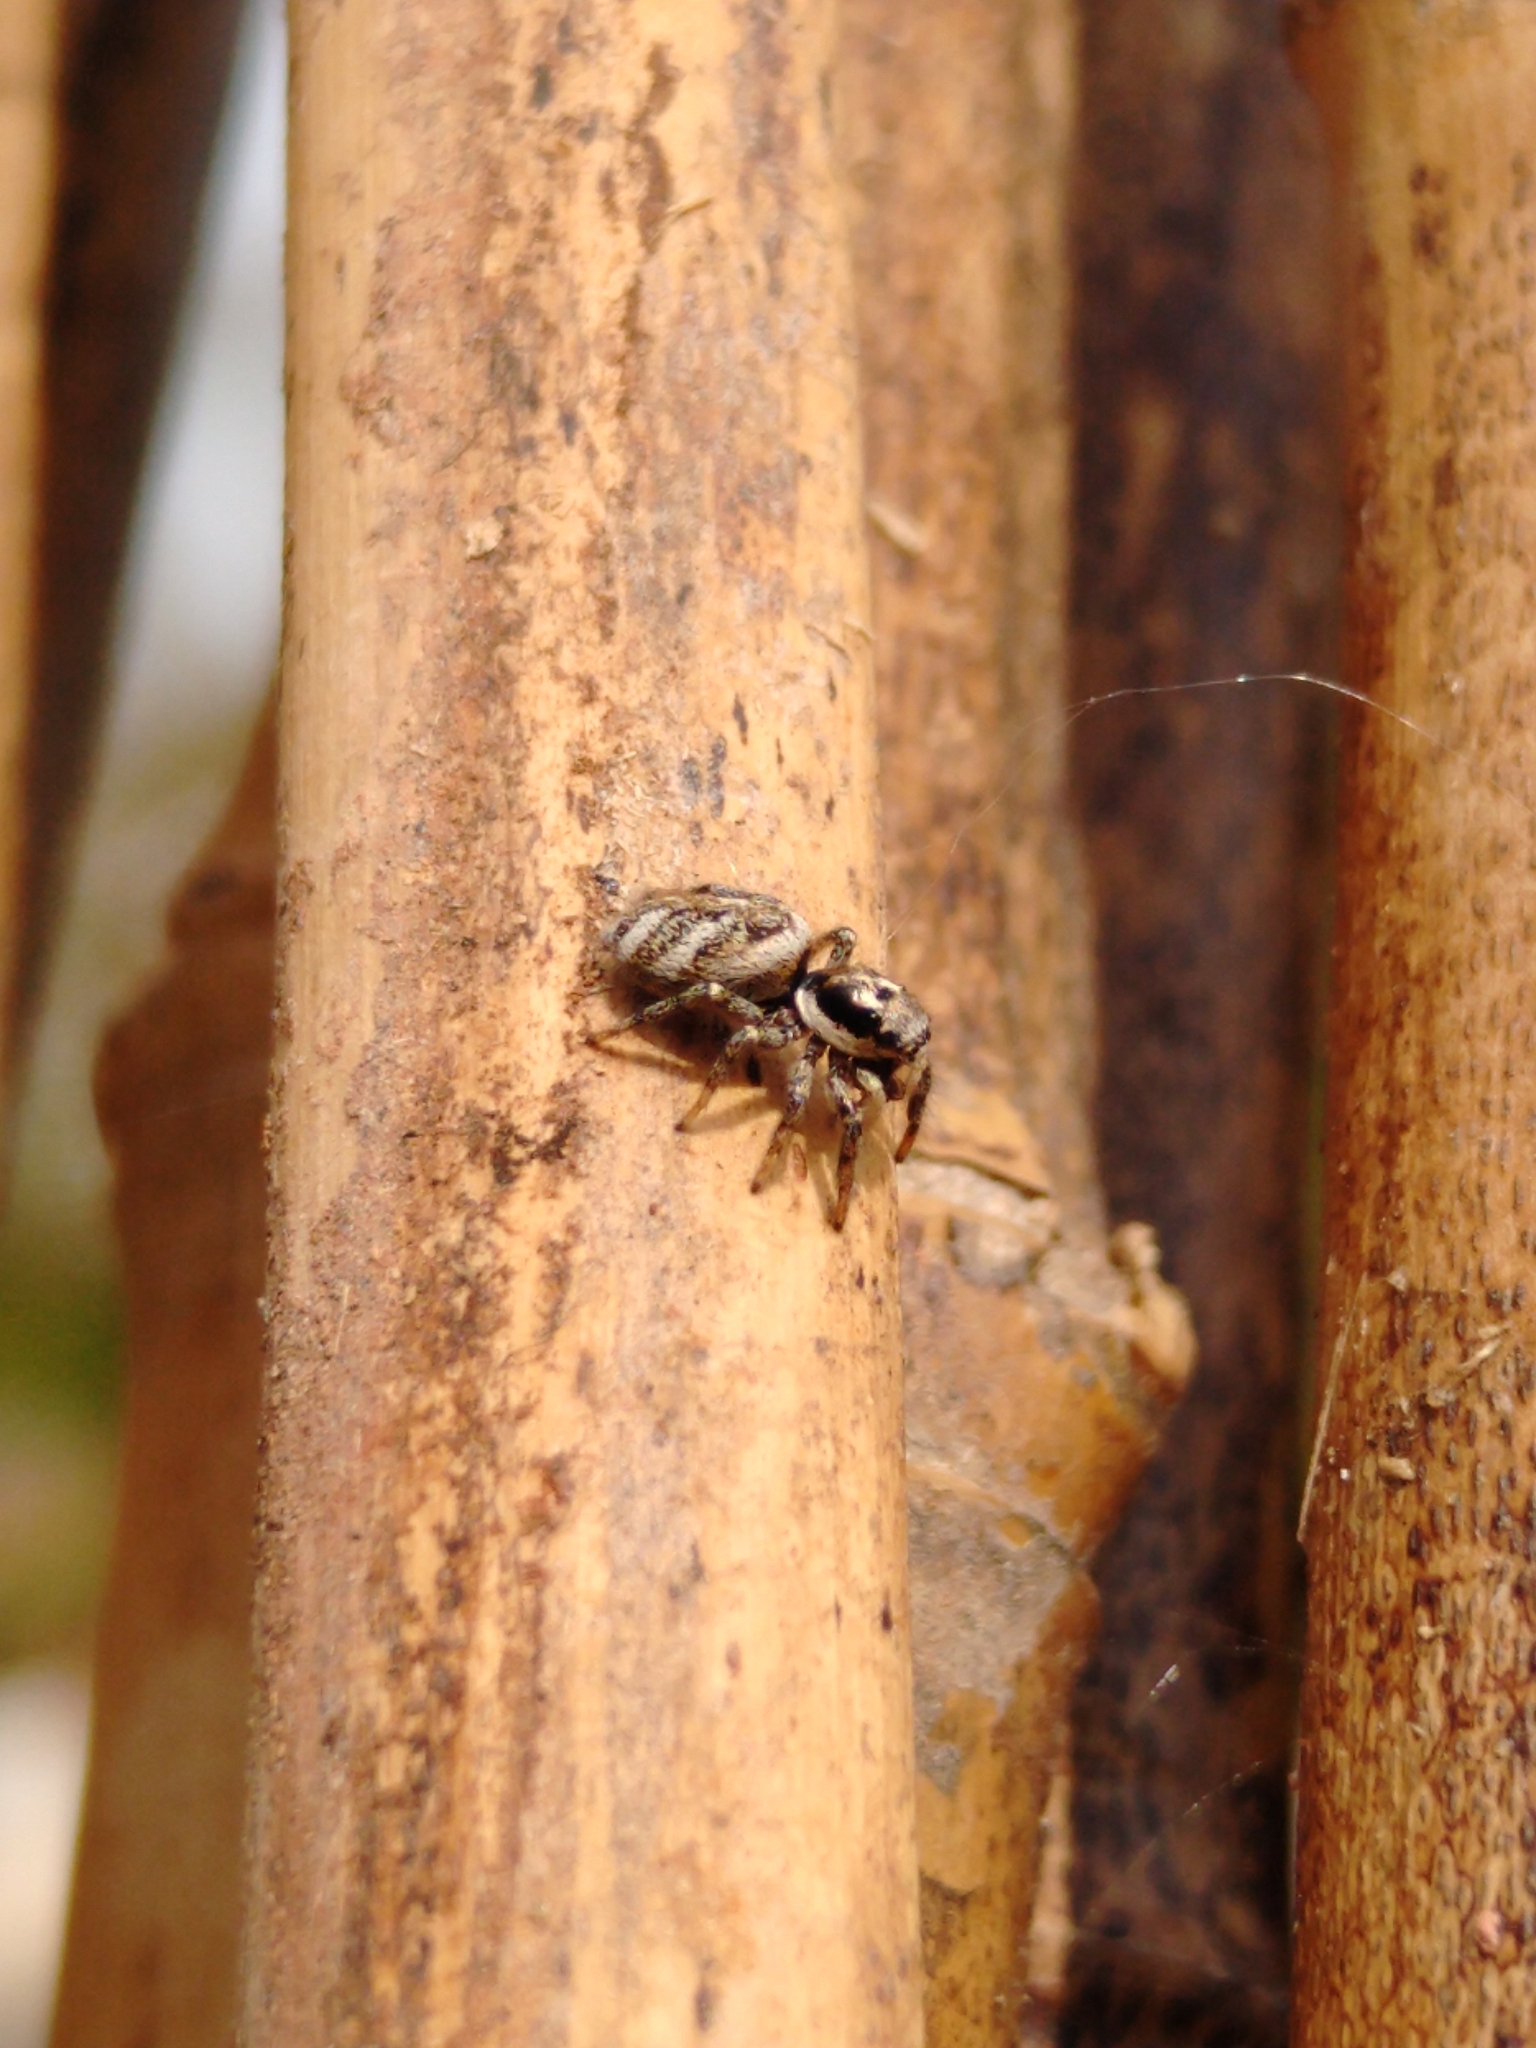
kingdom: Animalia
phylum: Arthropoda
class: Arachnida
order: Araneae
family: Salticidae
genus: Salticus
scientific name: Salticus scenicus
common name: Zebra jumper
